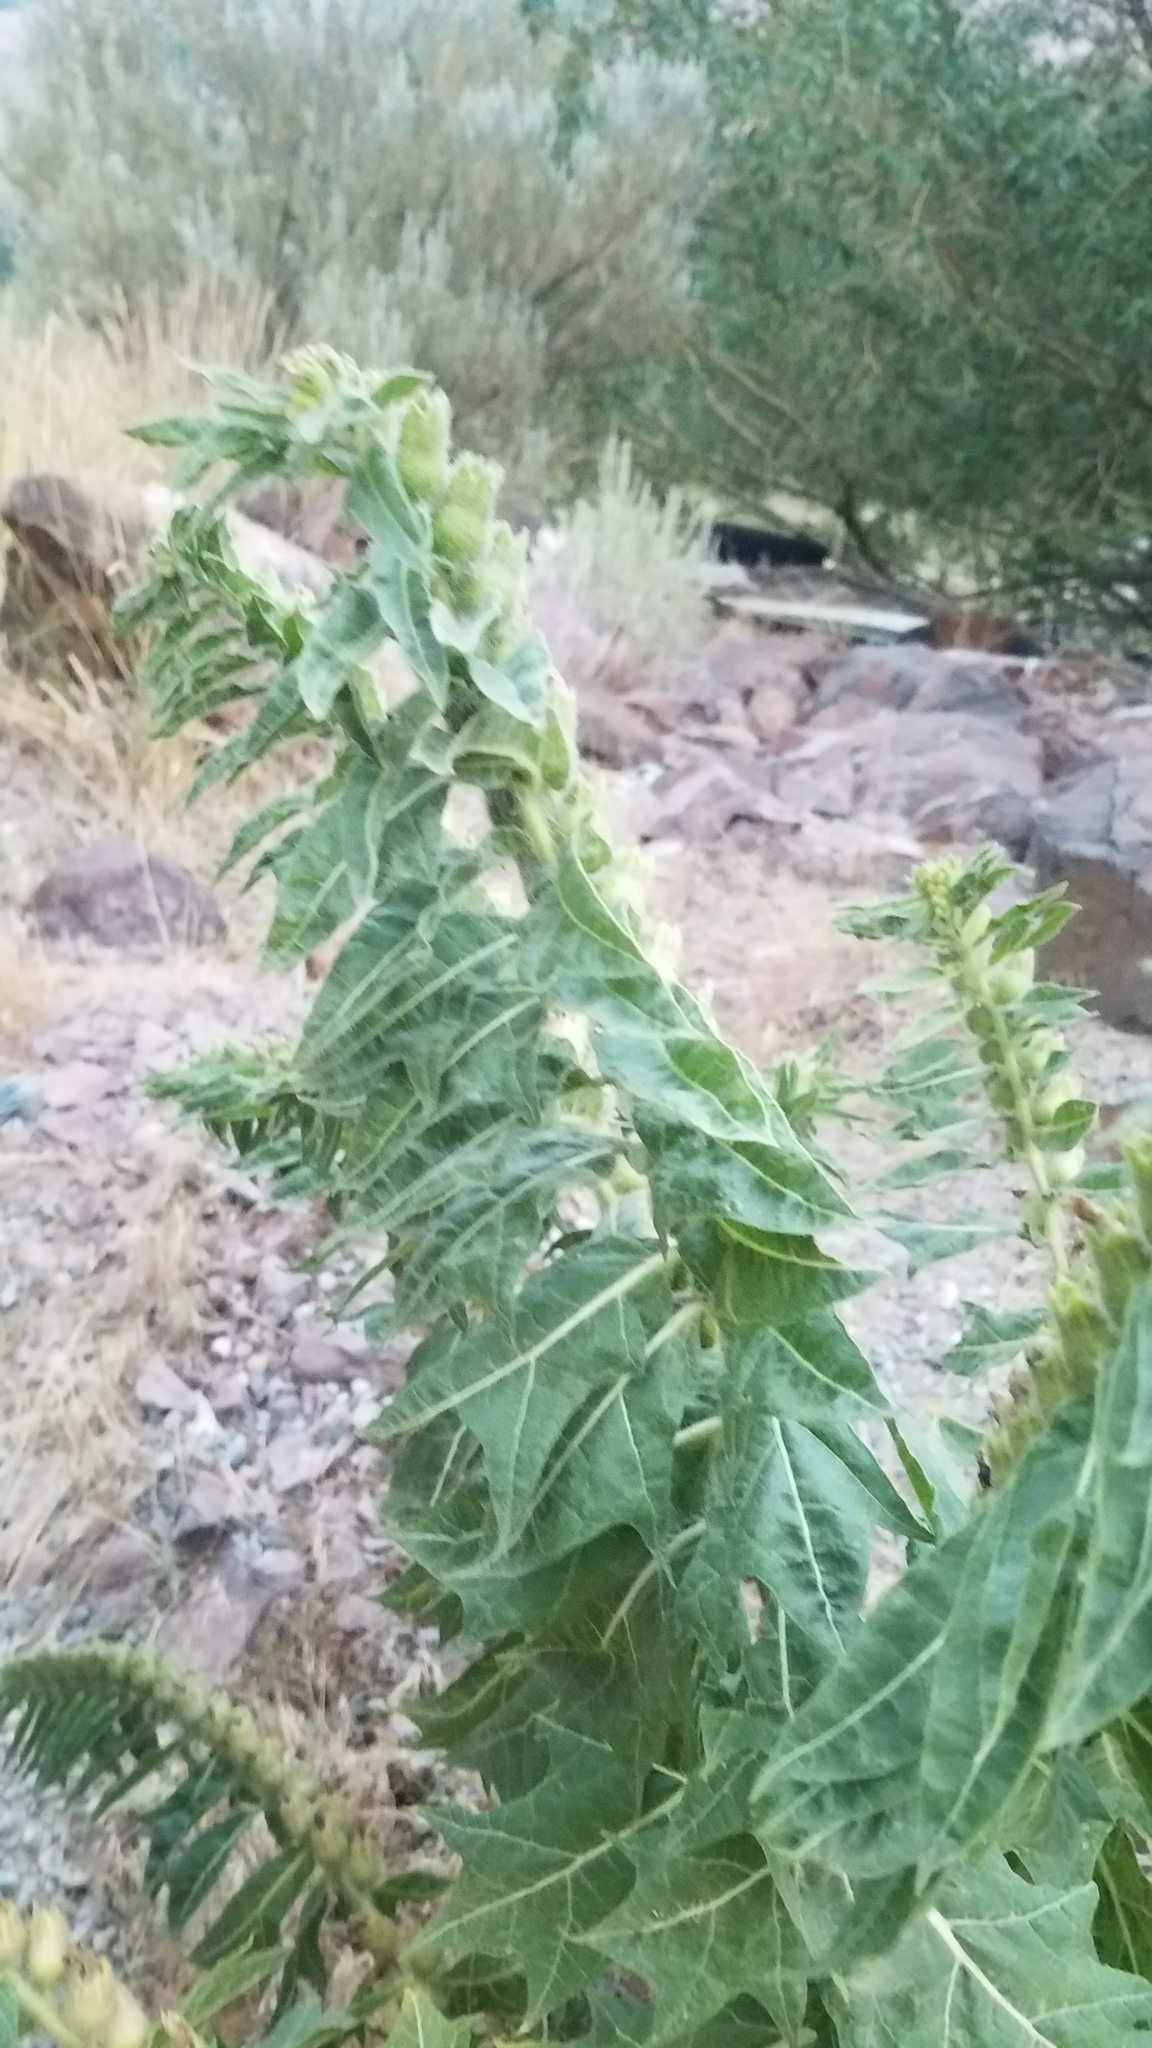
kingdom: Plantae
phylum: Tracheophyta
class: Magnoliopsida
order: Solanales
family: Solanaceae
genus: Hyoscyamus
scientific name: Hyoscyamus niger
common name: Henbane
